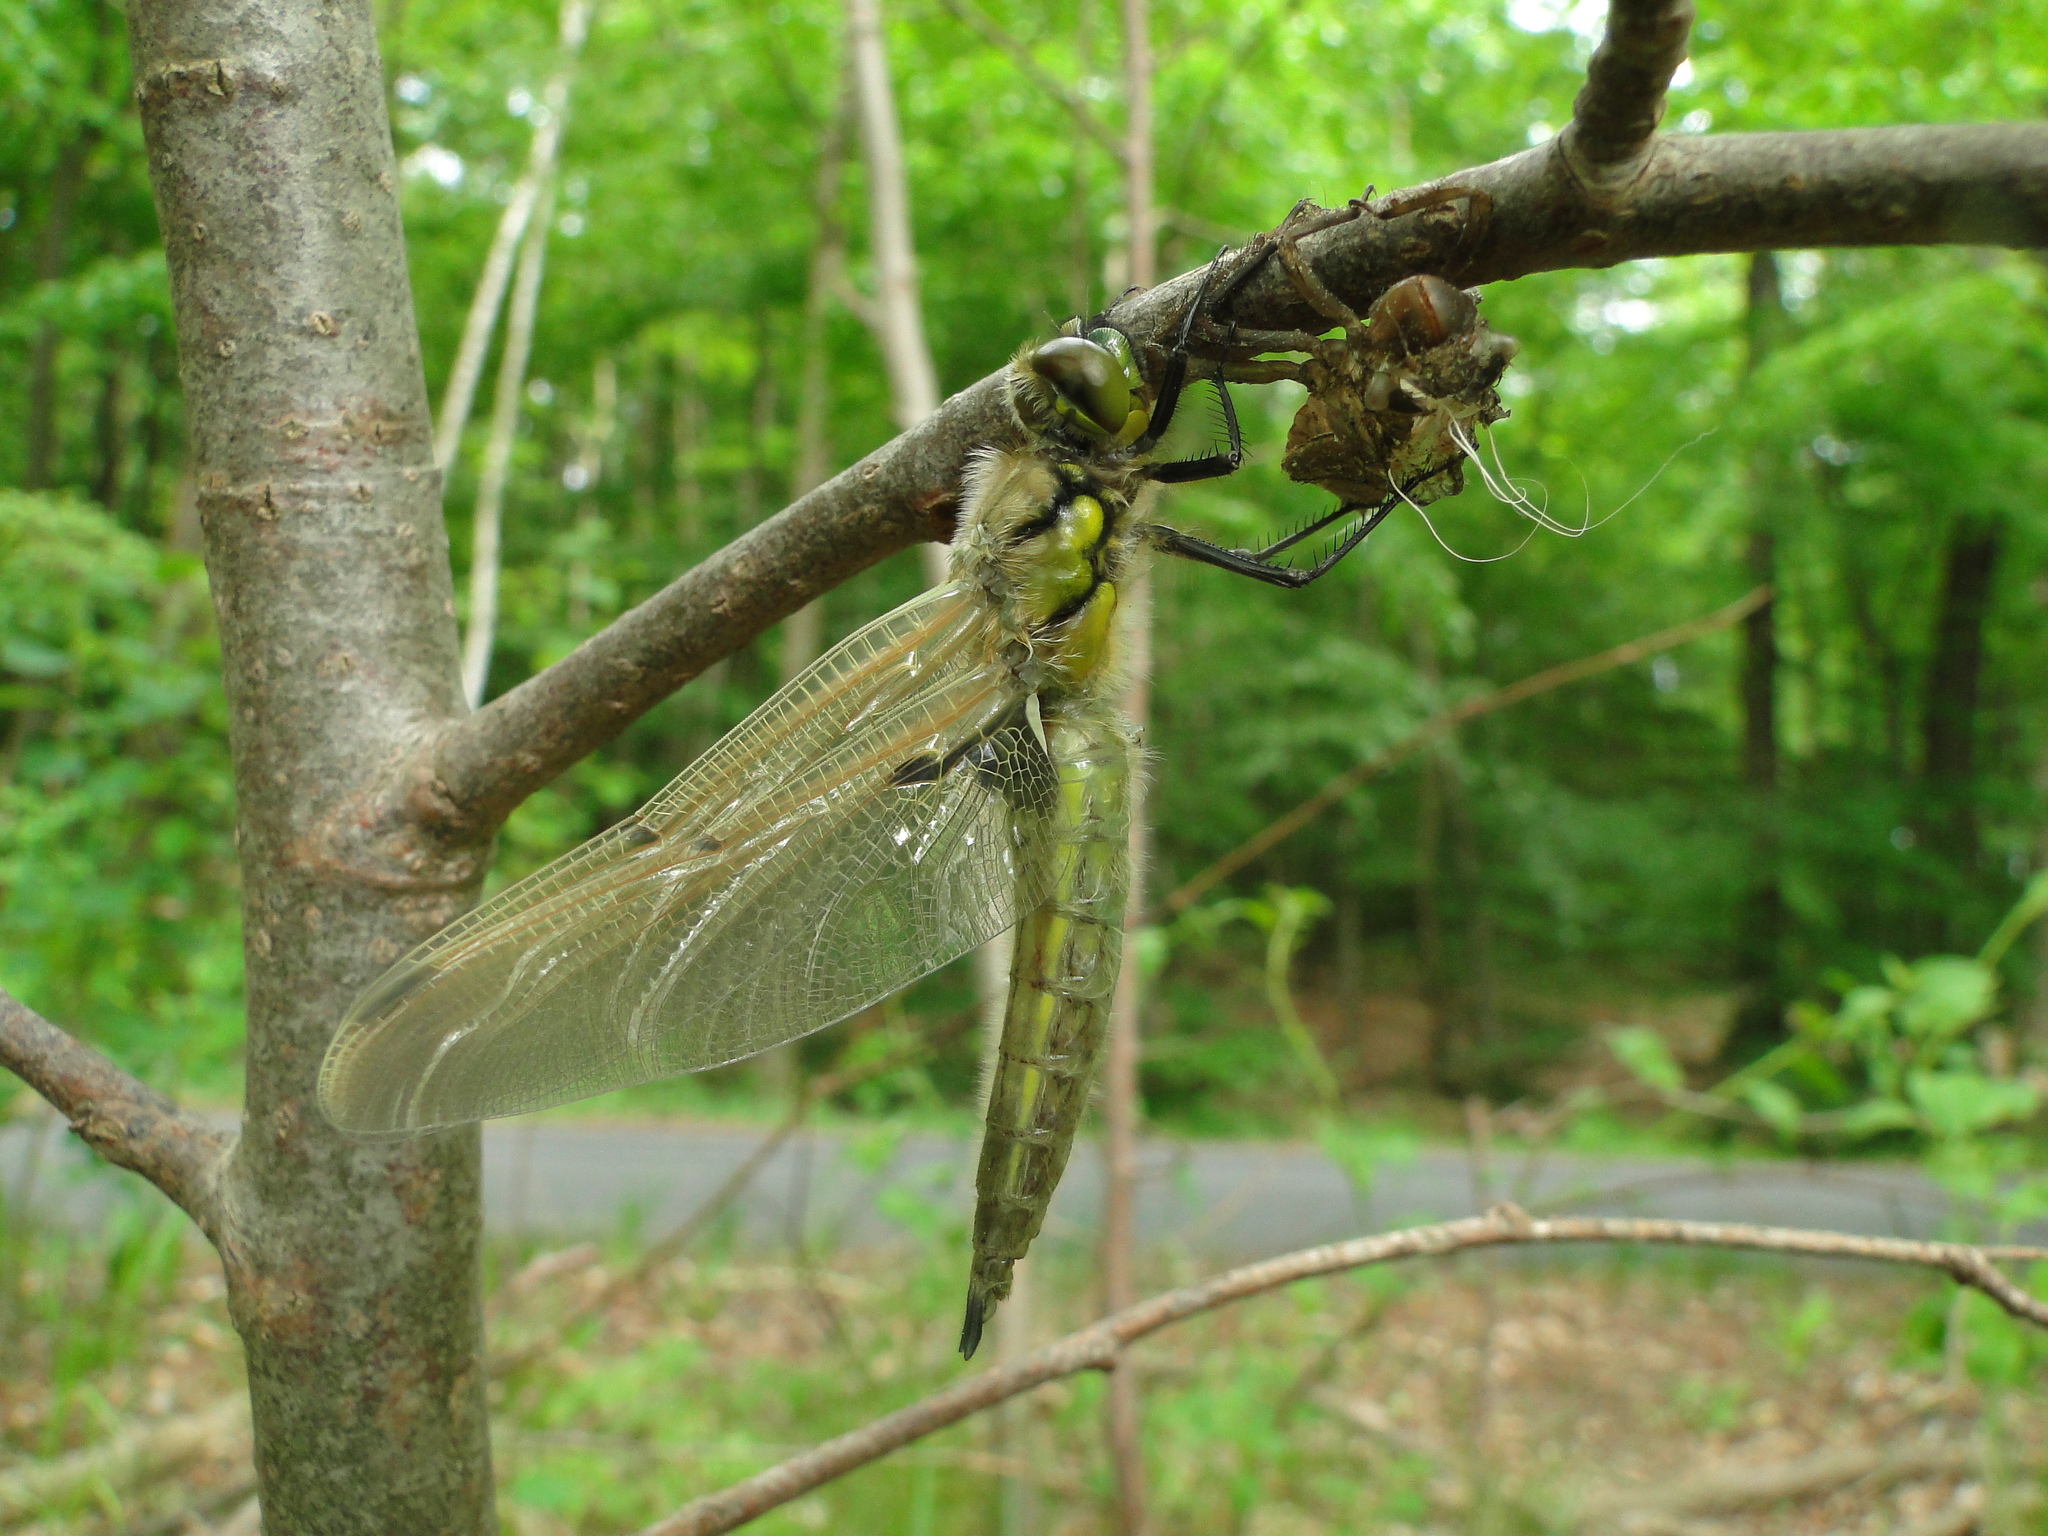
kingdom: Animalia
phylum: Arthropoda
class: Insecta
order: Odonata
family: Libellulidae
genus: Libellula
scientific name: Libellula quadrimaculata
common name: Four-spotted chaser
